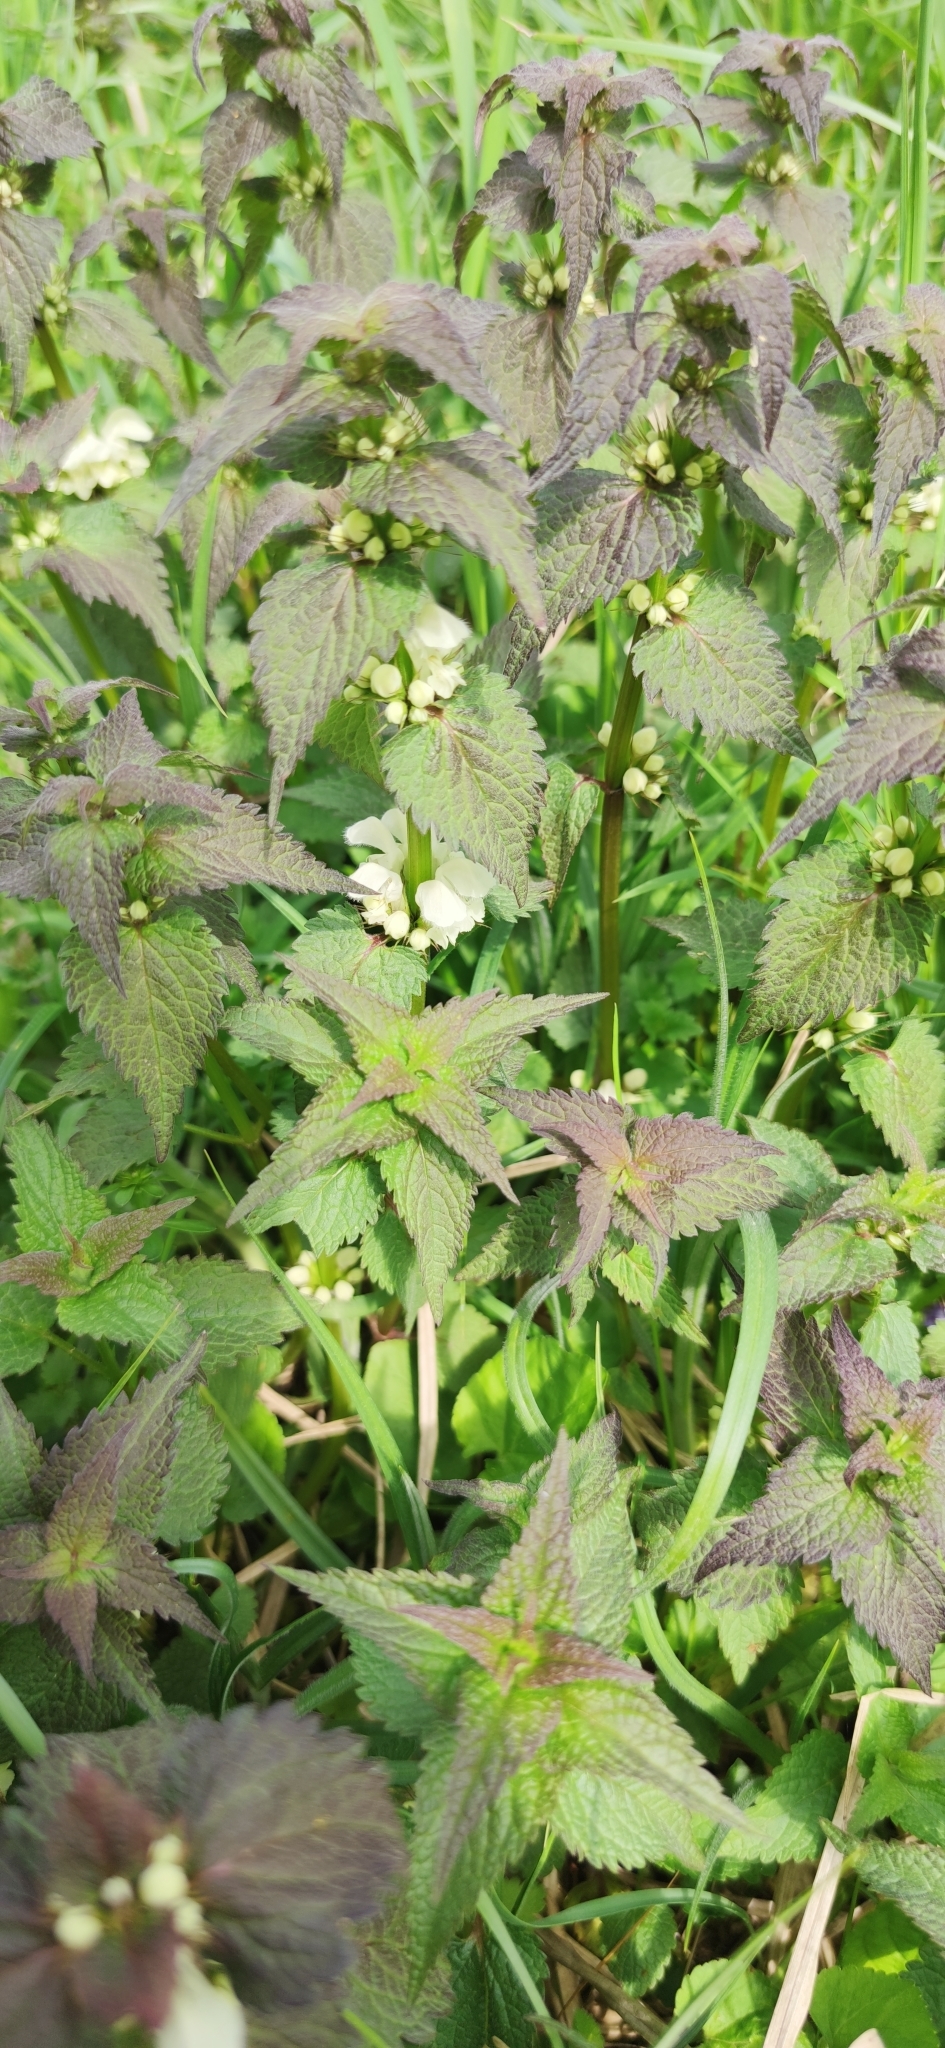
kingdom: Plantae
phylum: Tracheophyta
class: Magnoliopsida
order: Lamiales
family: Lamiaceae
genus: Lamium
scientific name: Lamium album
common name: White dead-nettle
